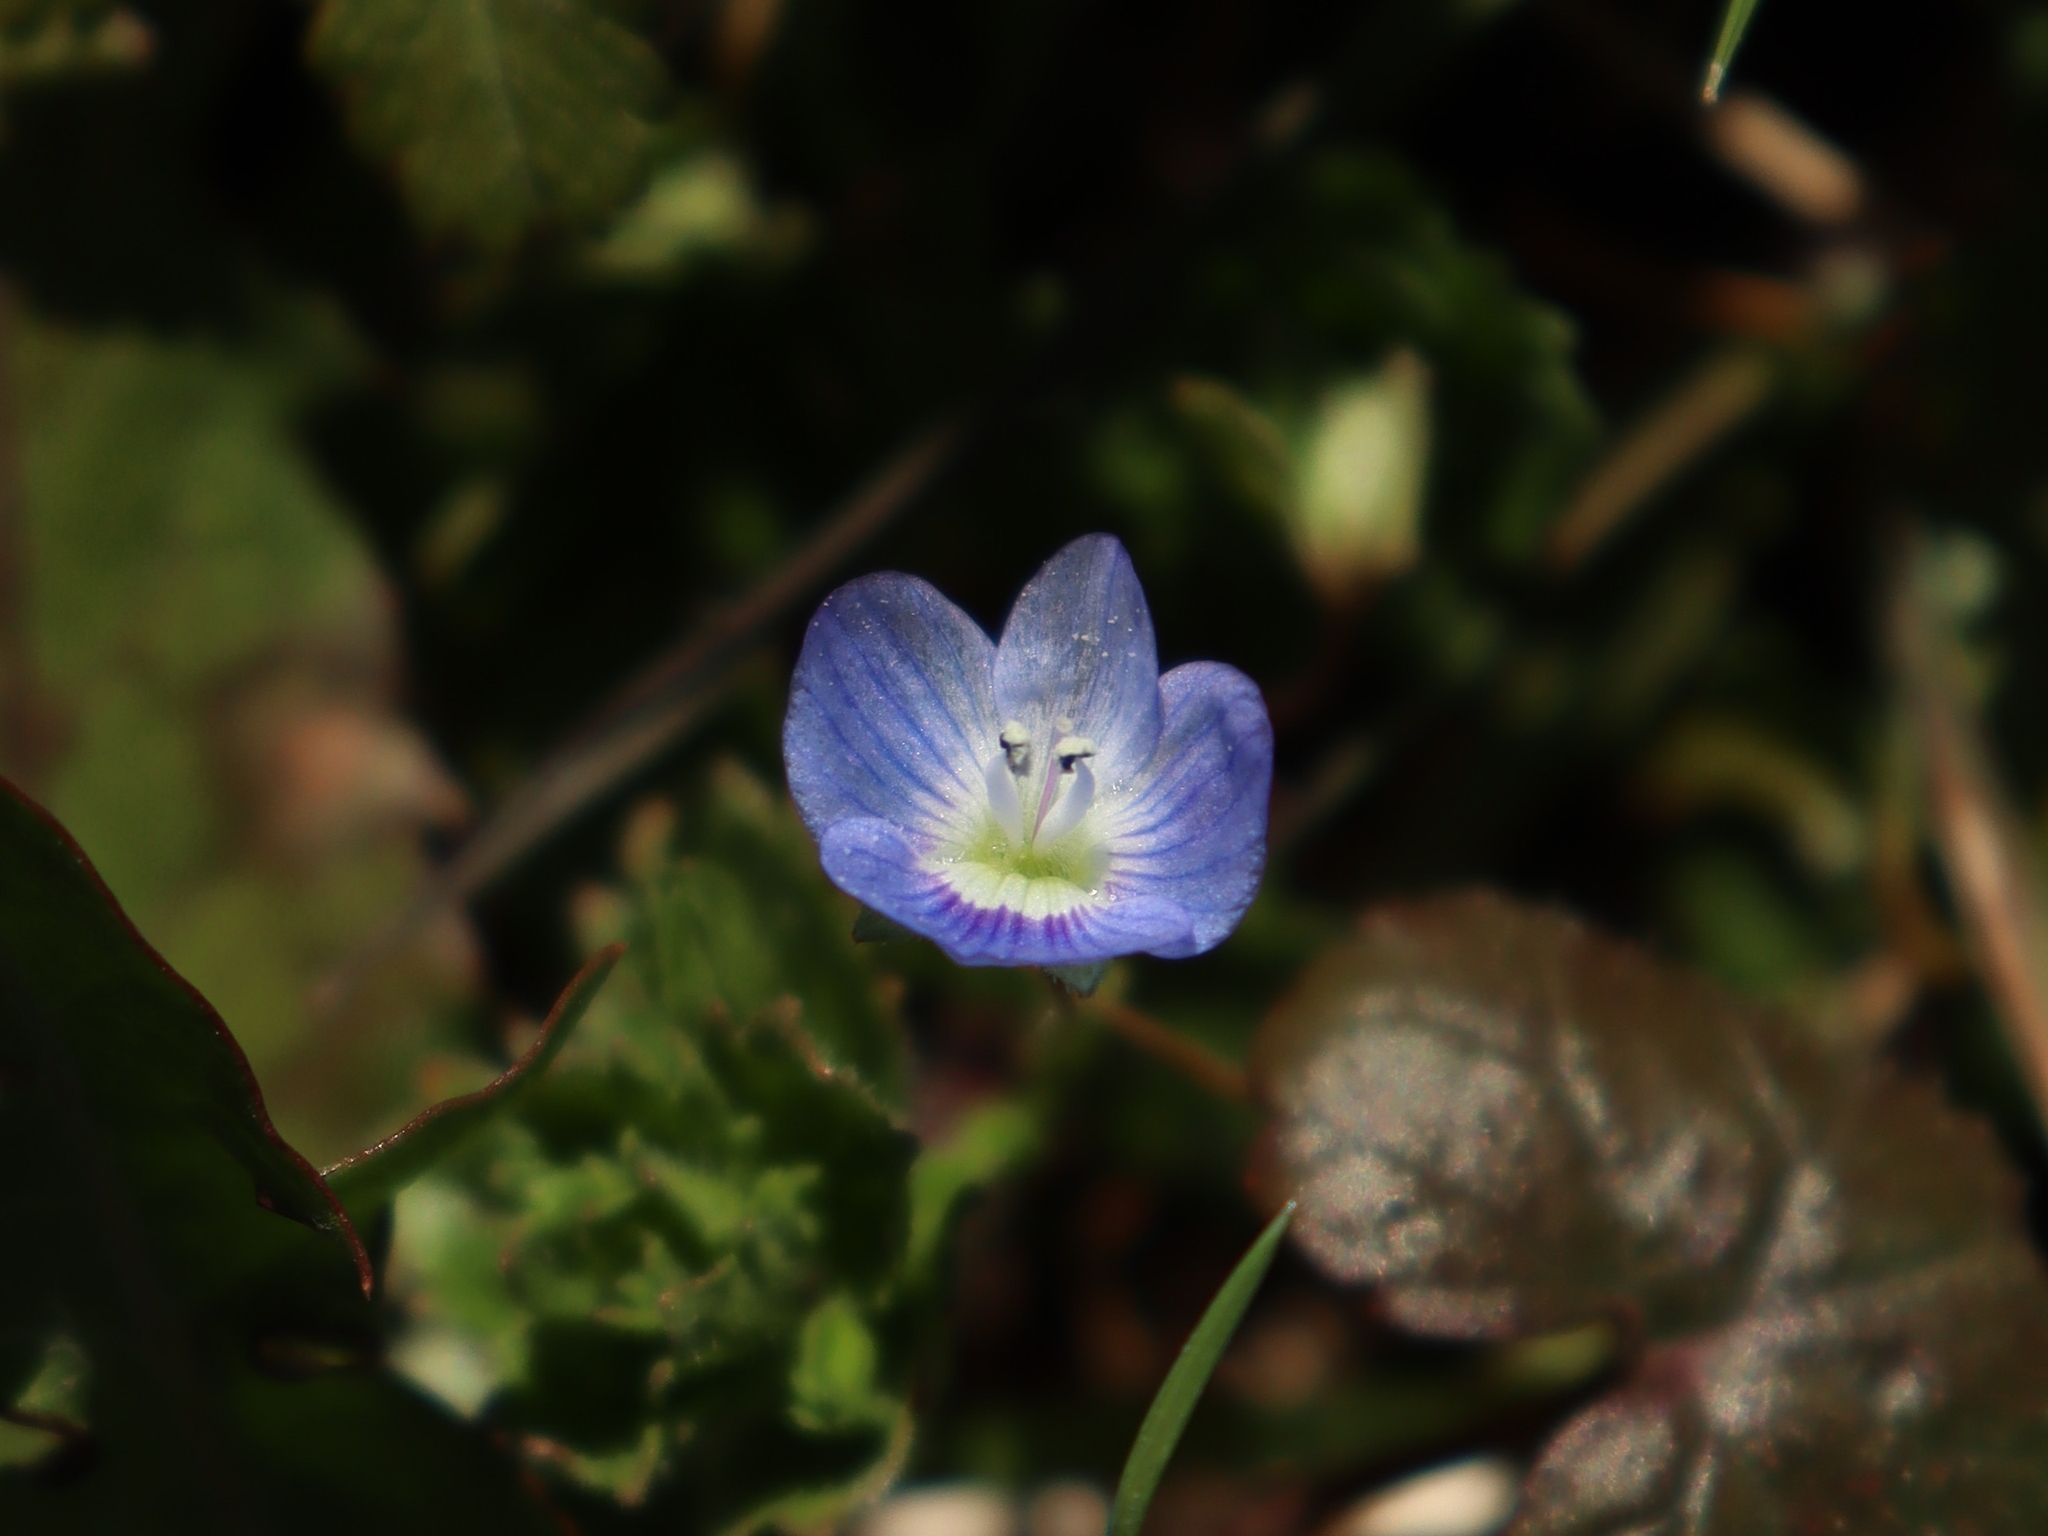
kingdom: Plantae
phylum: Tracheophyta
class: Magnoliopsida
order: Lamiales
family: Plantaginaceae
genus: Veronica
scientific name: Veronica persica
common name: Common field-speedwell
